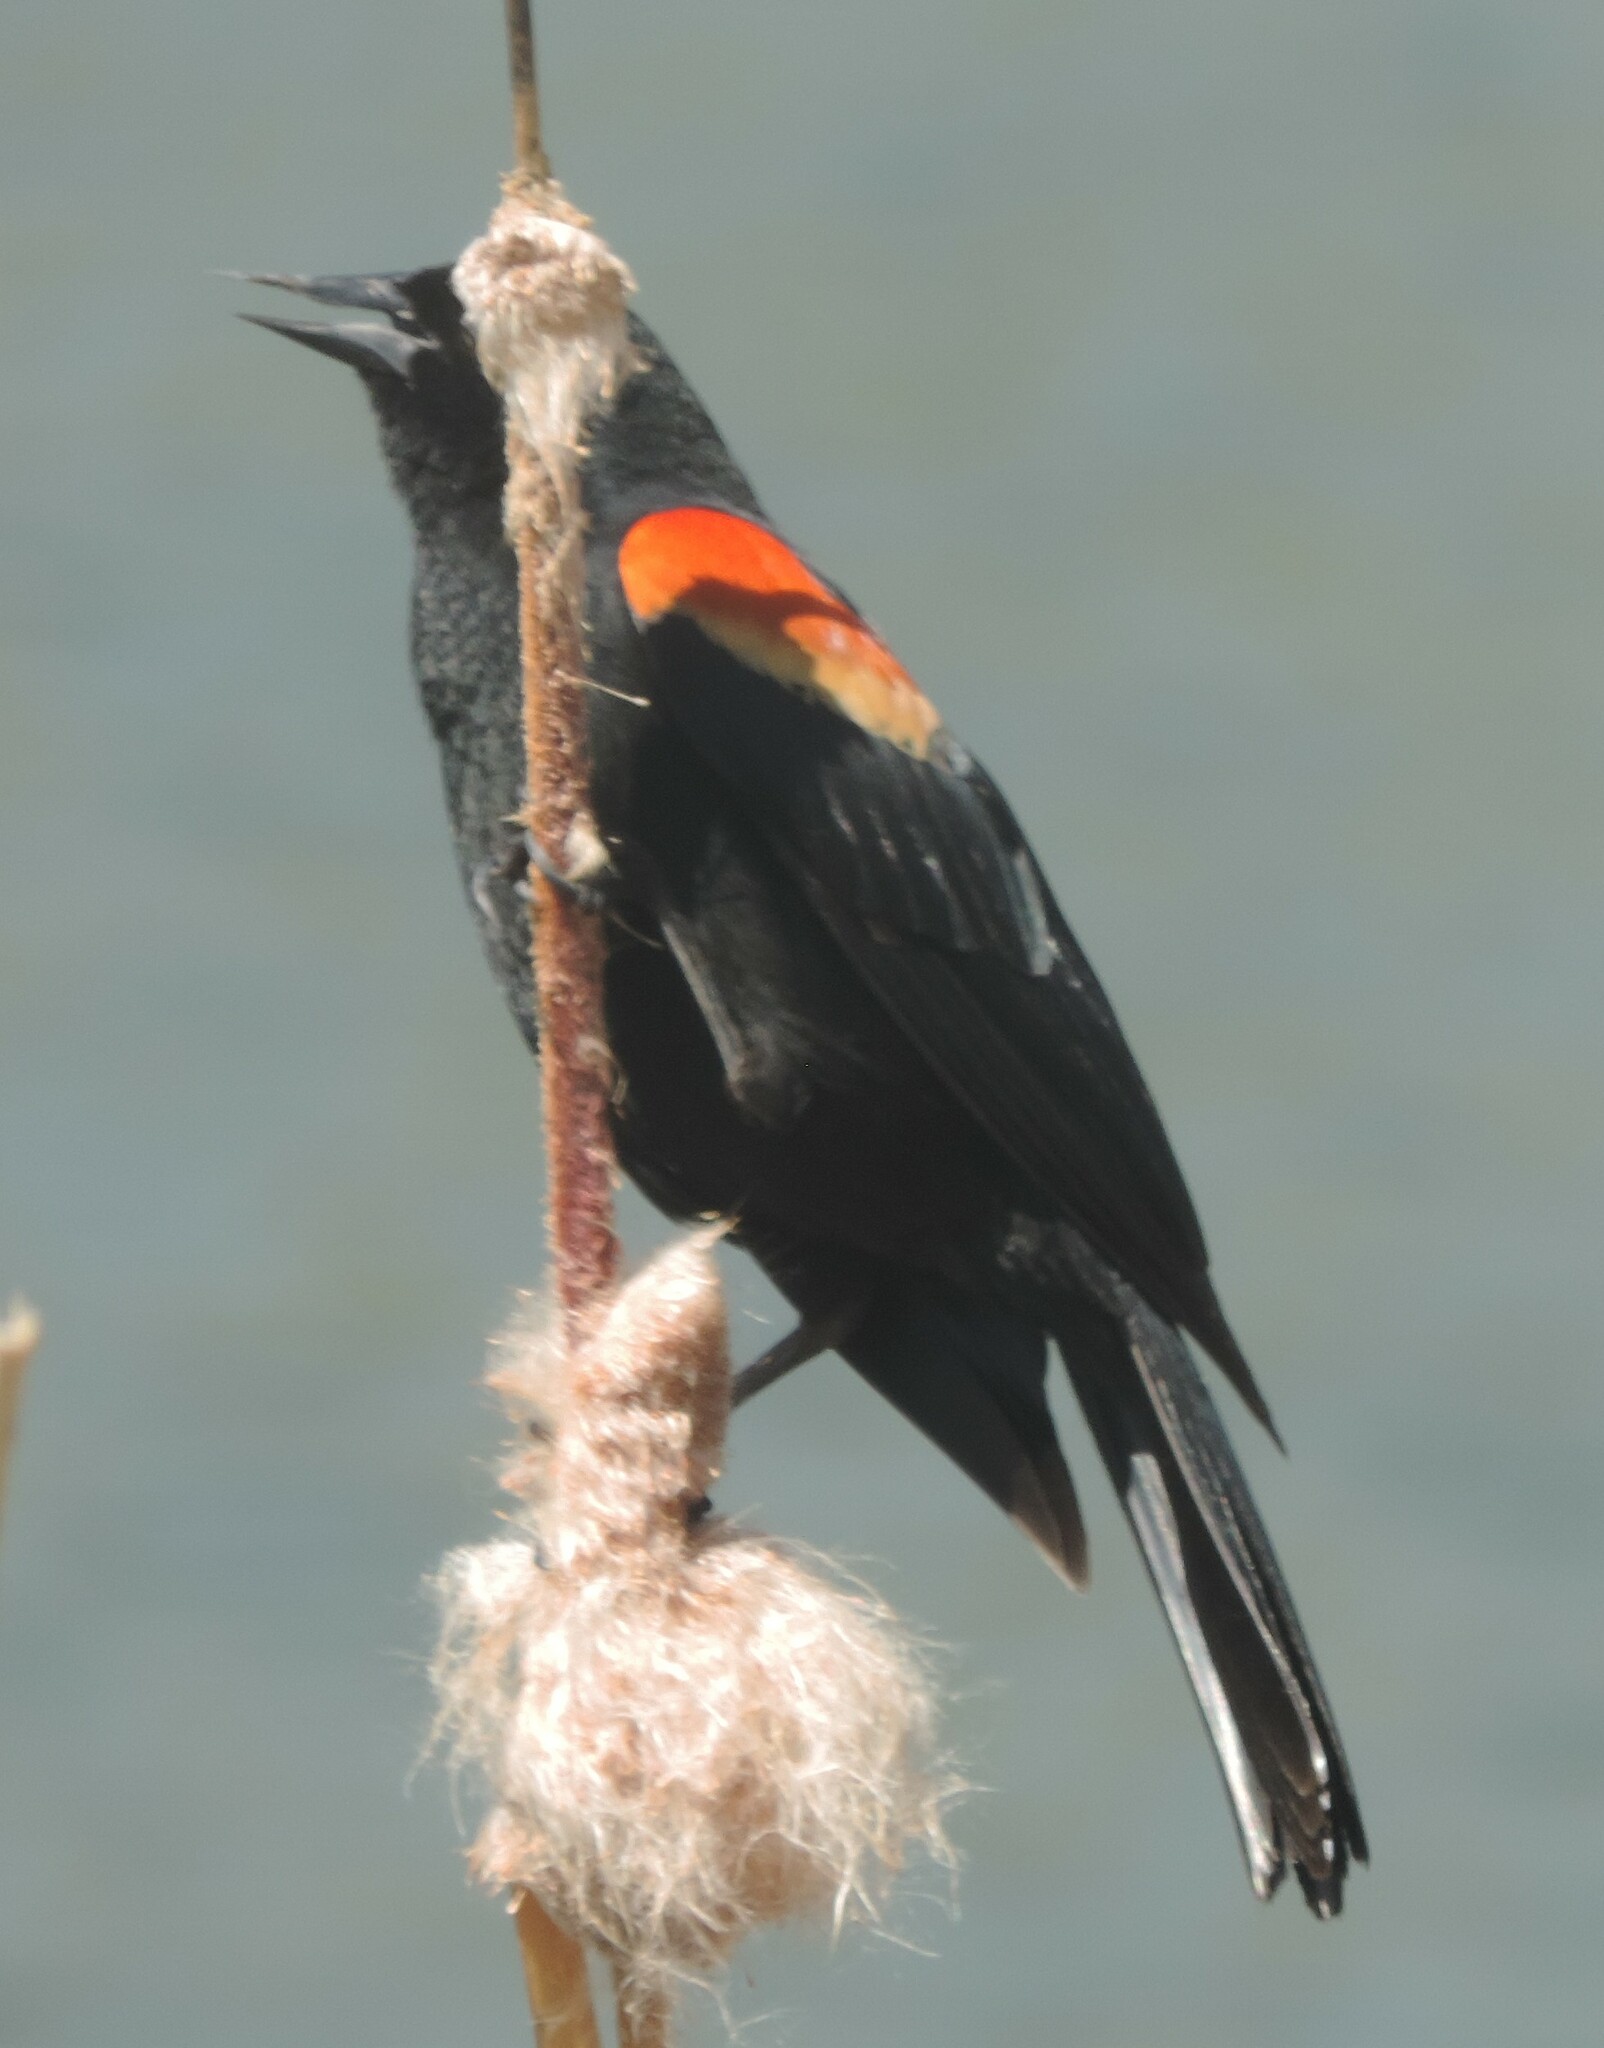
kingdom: Animalia
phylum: Chordata
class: Aves
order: Passeriformes
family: Icteridae
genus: Agelaius
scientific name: Agelaius phoeniceus
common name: Red-winged blackbird
